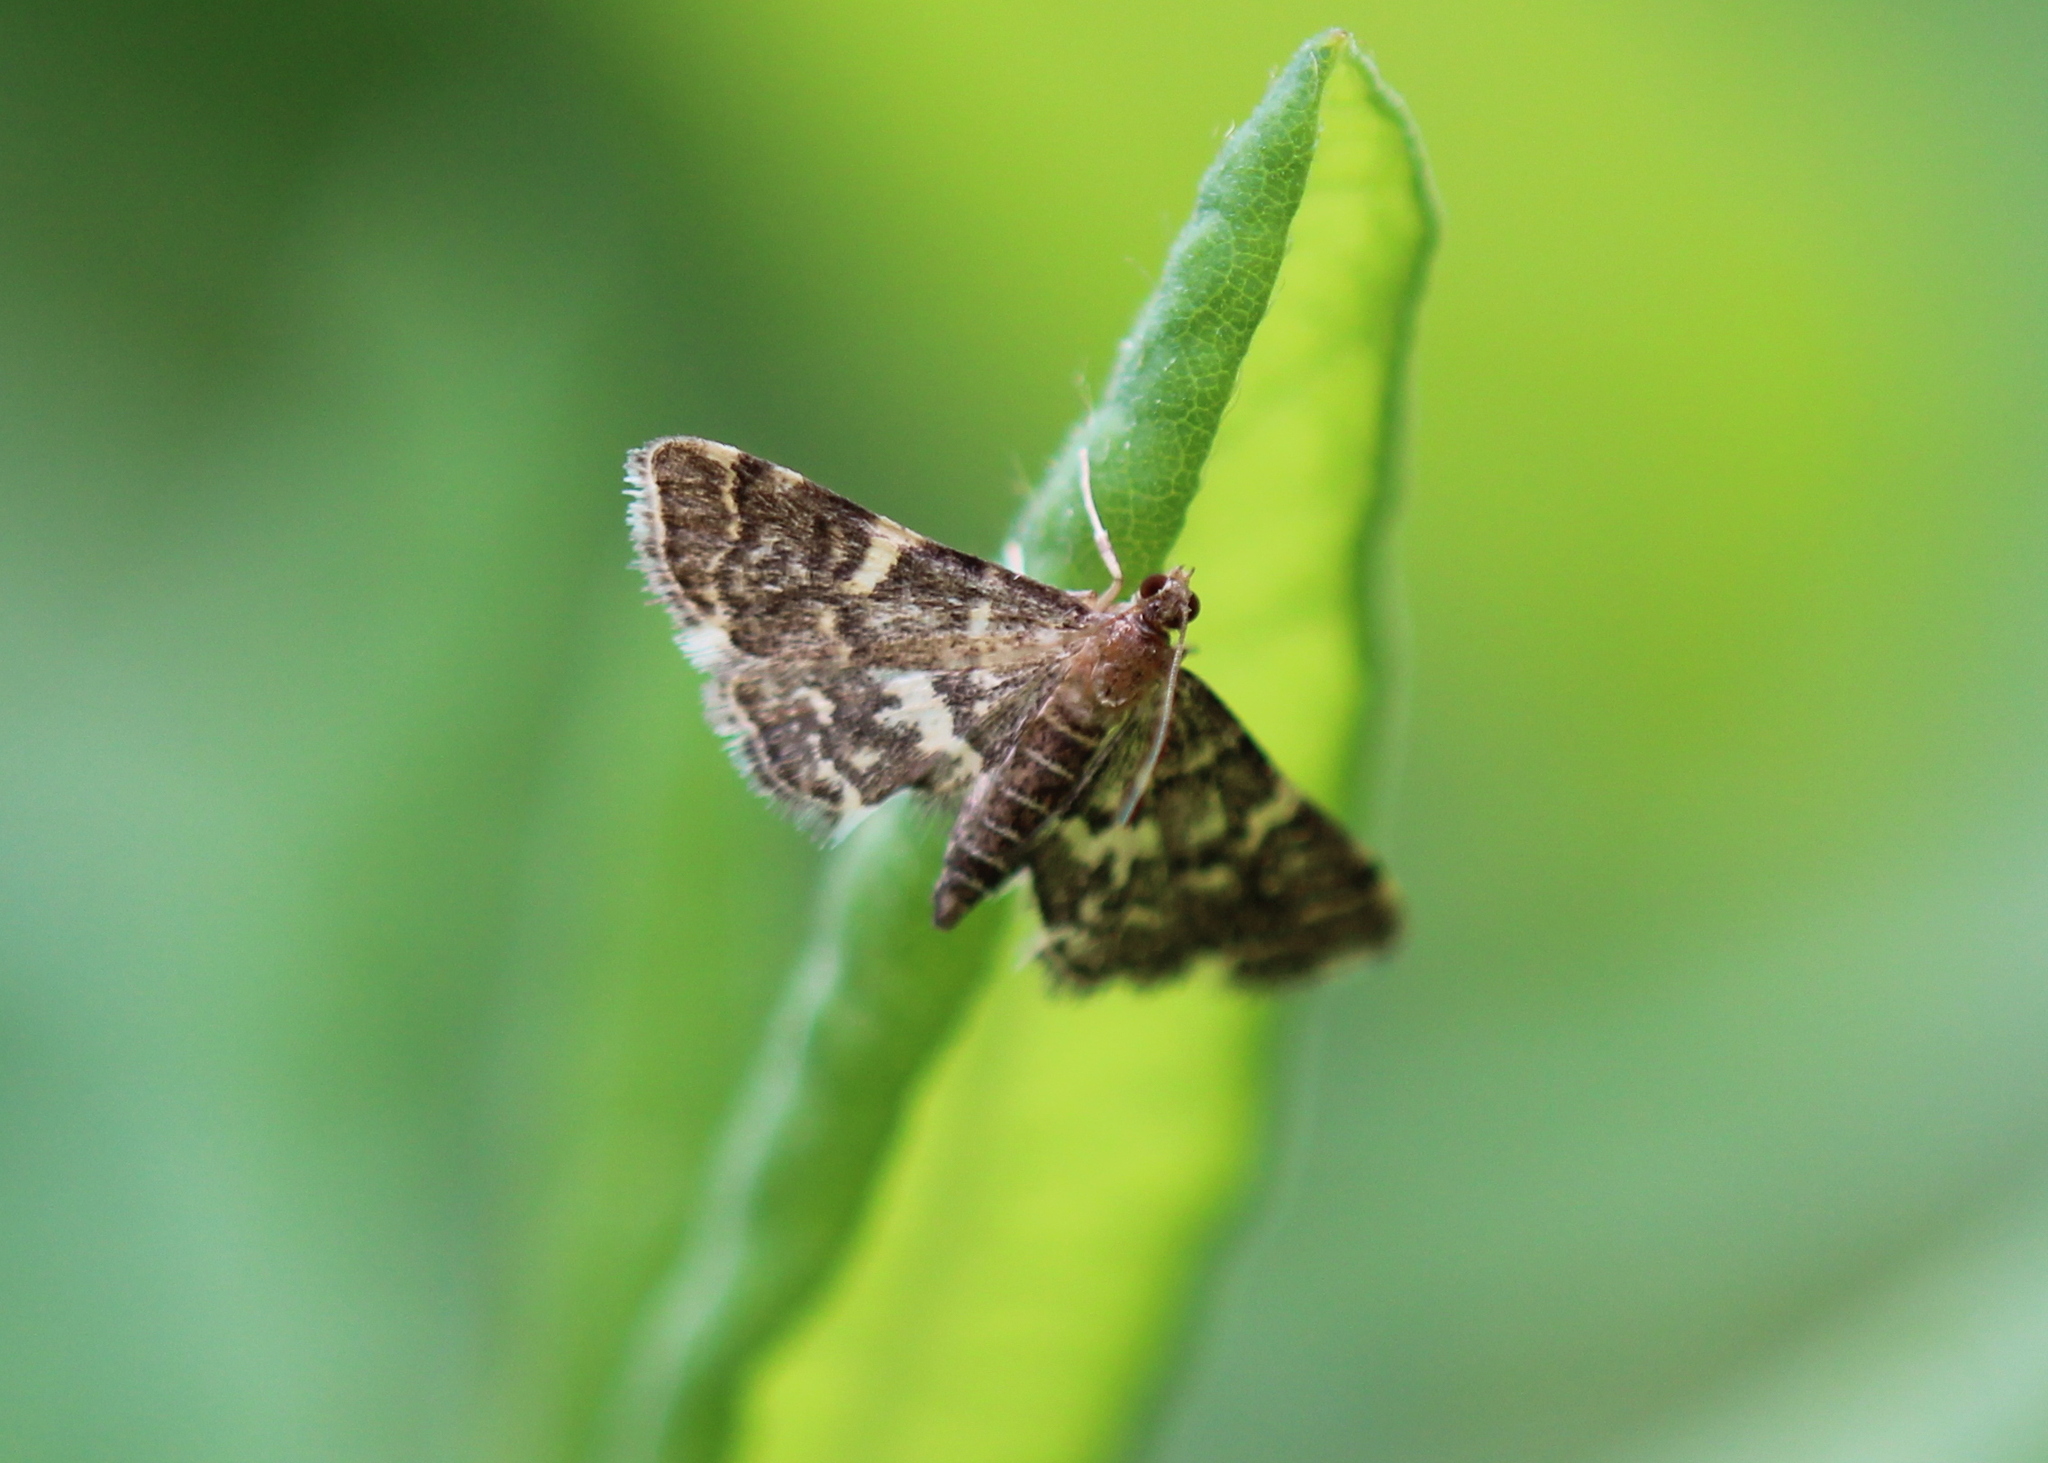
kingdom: Animalia
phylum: Arthropoda
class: Insecta
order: Lepidoptera
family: Crambidae
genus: Anageshna
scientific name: Anageshna primordialis
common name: Yellow-spotted webworm moth
